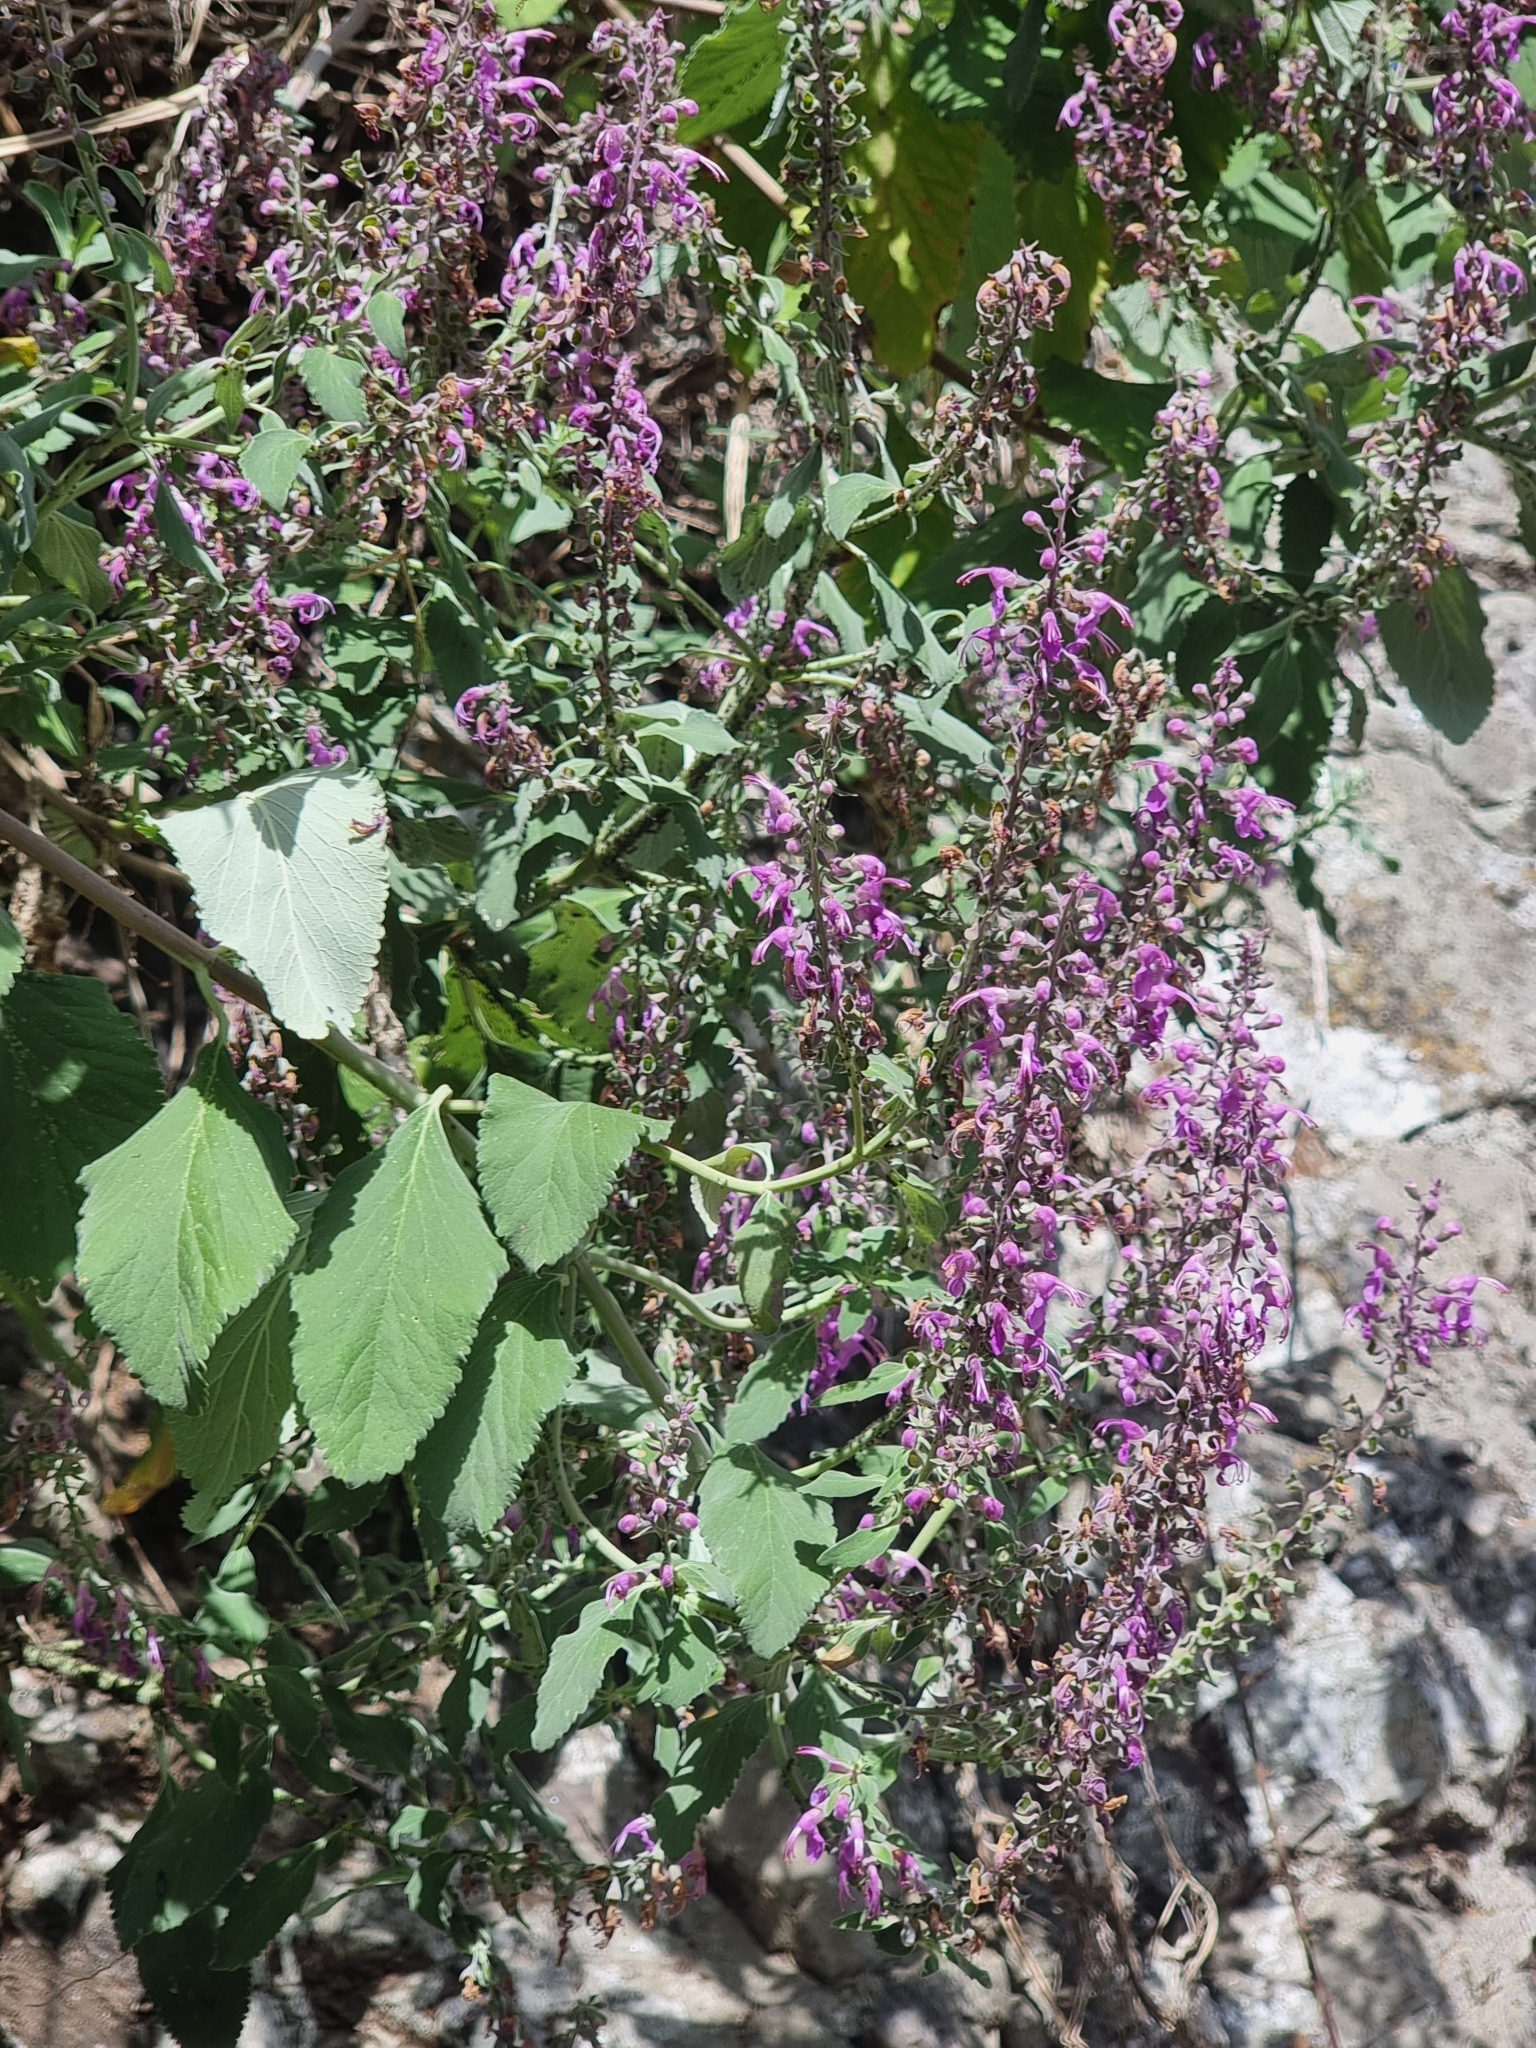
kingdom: Plantae
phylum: Tracheophyta
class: Magnoliopsida
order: Lamiales
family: Lamiaceae
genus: Teucrium
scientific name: Teucrium betonicum
